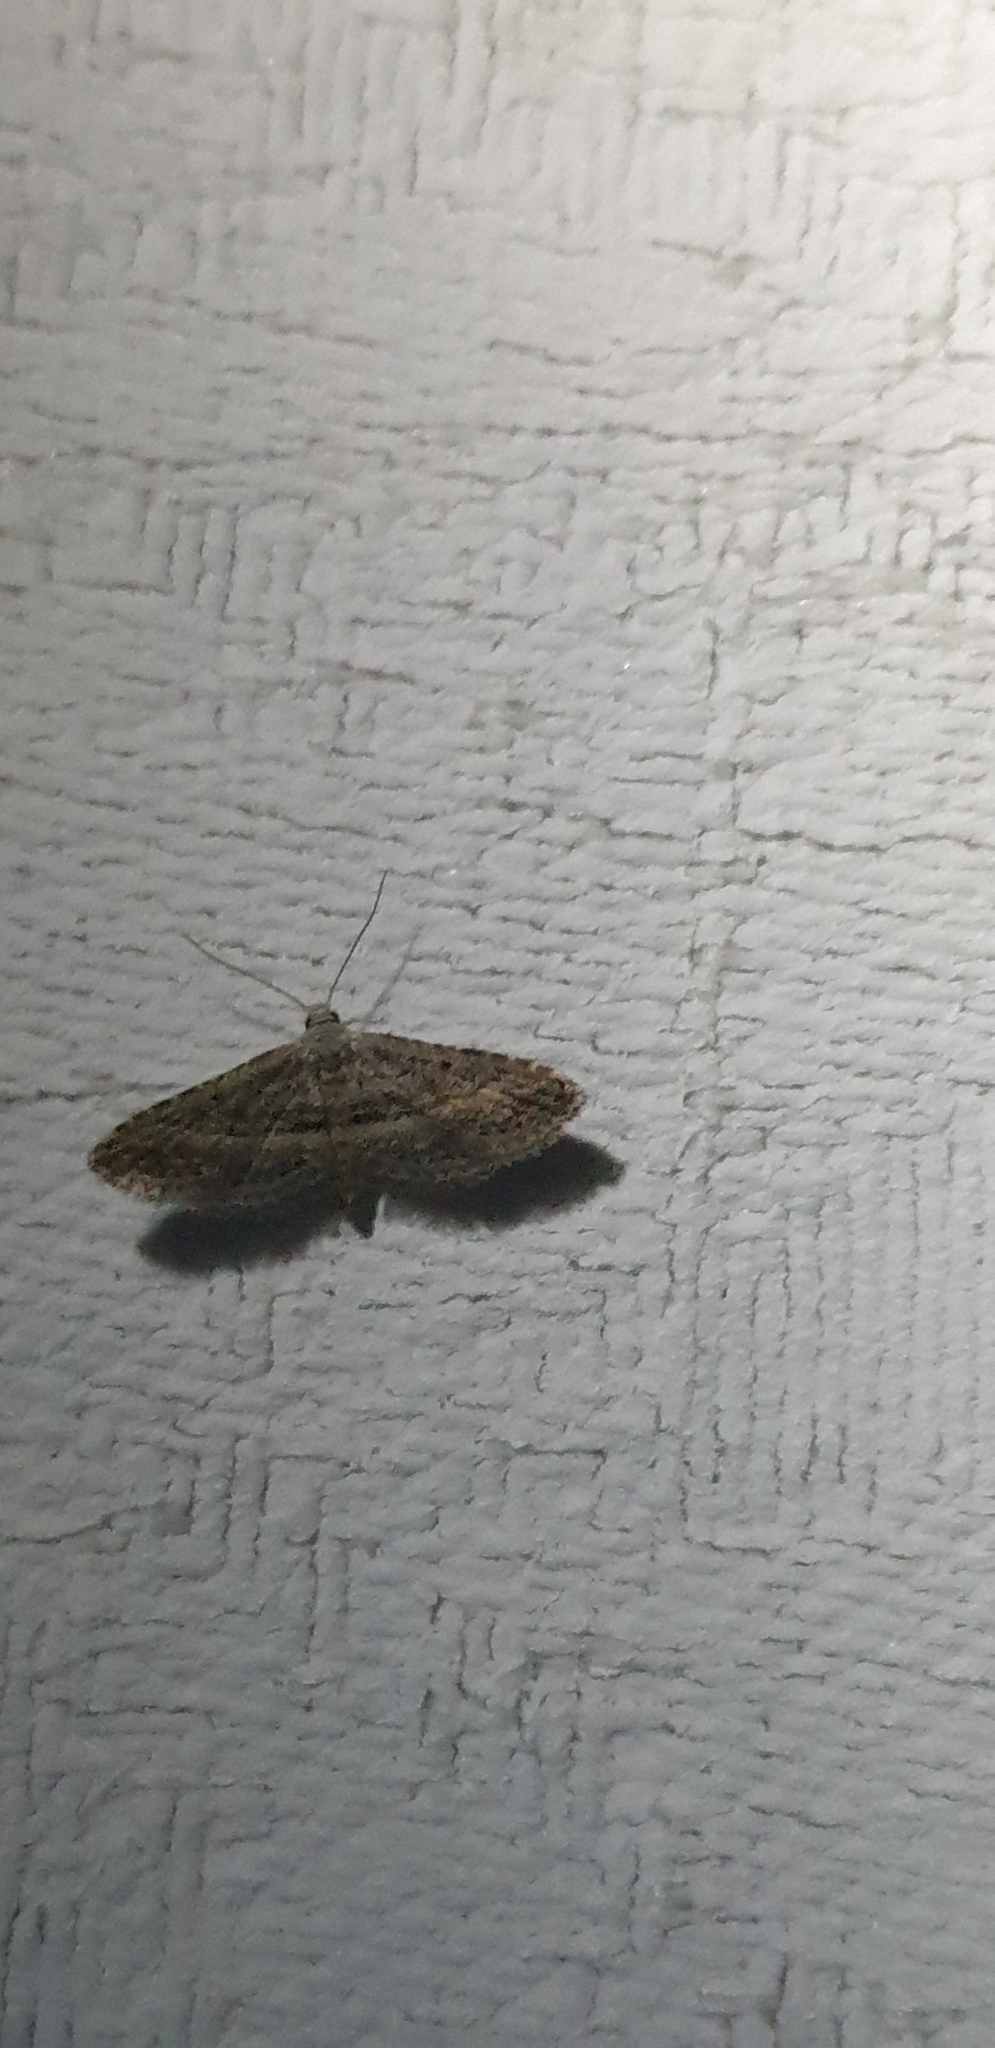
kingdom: Animalia
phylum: Arthropoda
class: Insecta
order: Lepidoptera
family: Noctuidae
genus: Araeopteron
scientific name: Araeopteron canescens
